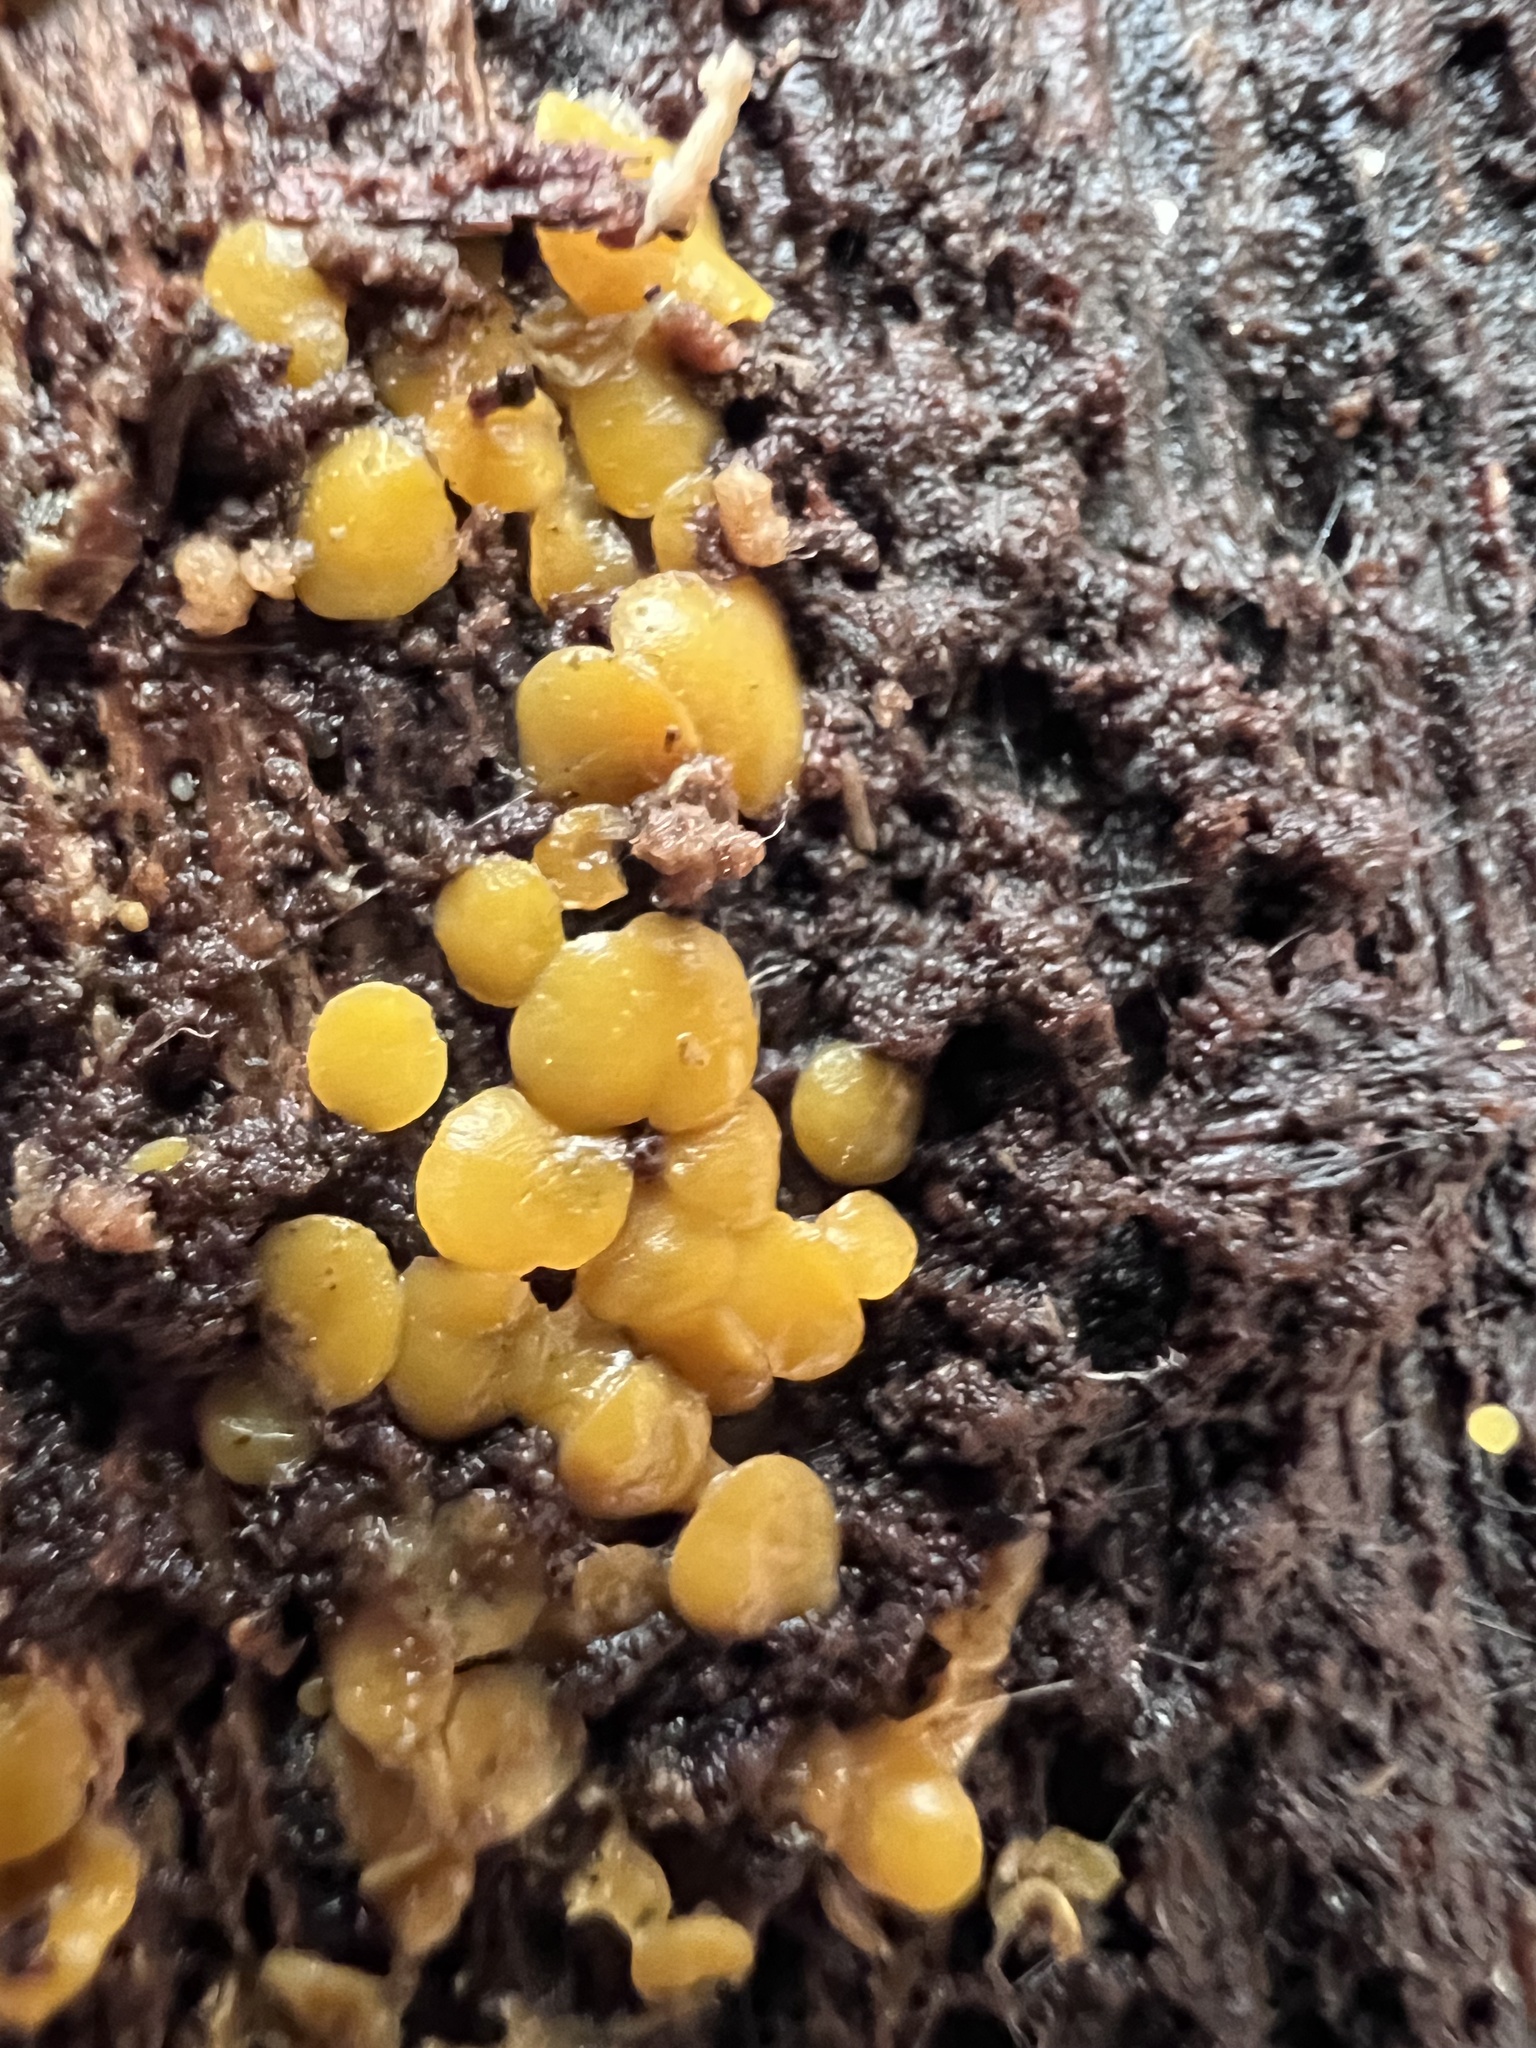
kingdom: Fungi
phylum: Ascomycota
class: Leotiomycetes
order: Helotiales
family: Pezizellaceae
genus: Calycina
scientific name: Calycina citrina
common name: Yellow fairy cups
